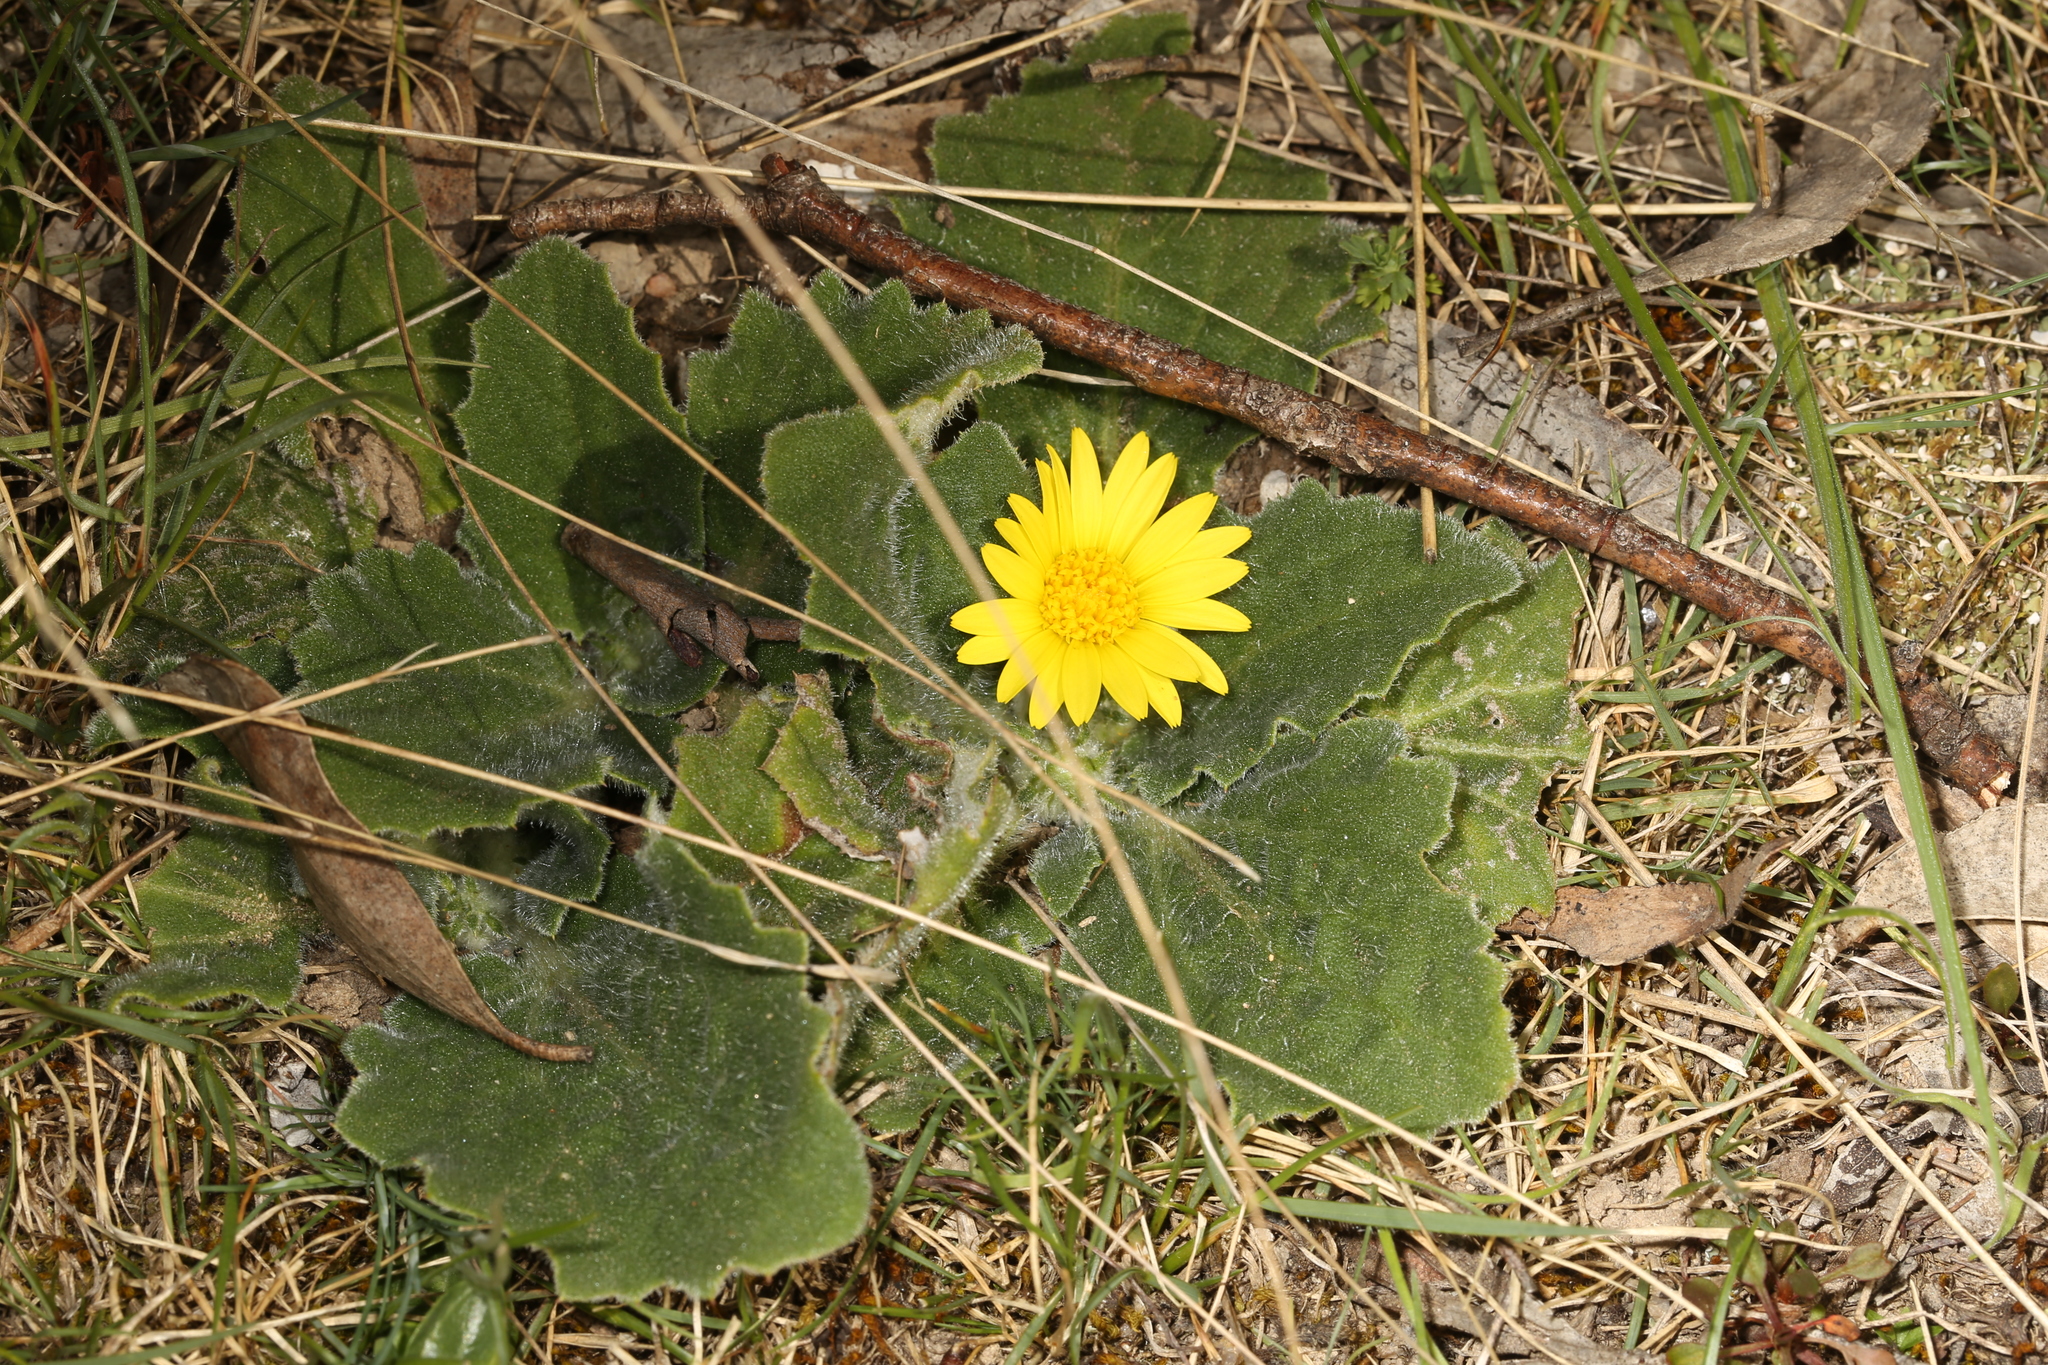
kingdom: Plantae
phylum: Tracheophyta
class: Magnoliopsida
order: Asterales
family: Asteraceae
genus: Cymbonotus
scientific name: Cymbonotus preissianus
